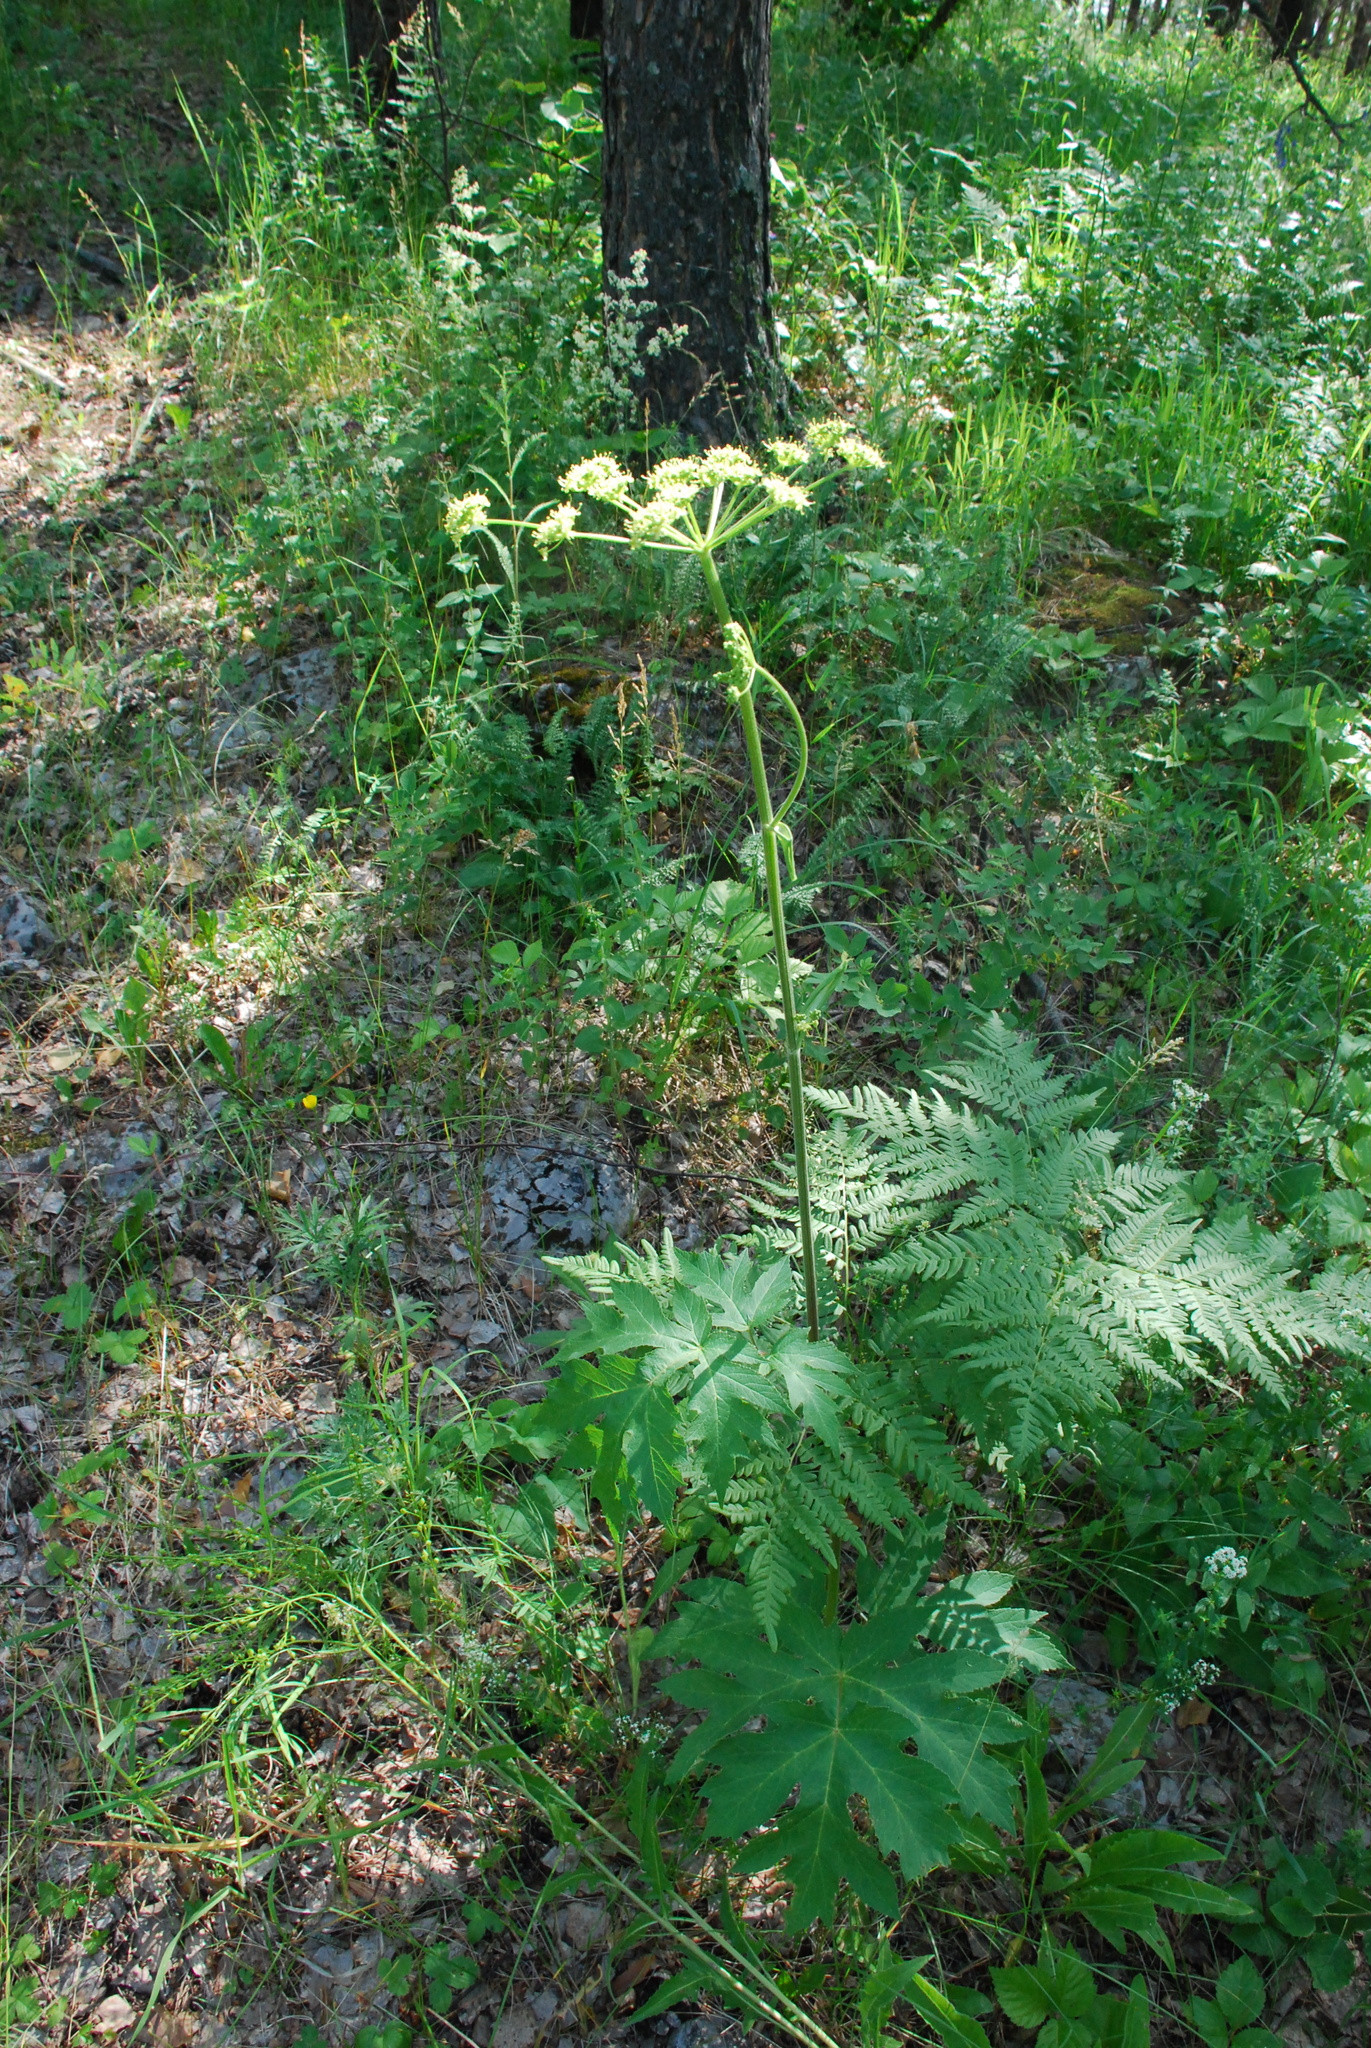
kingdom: Plantae
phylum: Tracheophyta
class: Magnoliopsida
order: Apiales
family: Apiaceae
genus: Heracleum
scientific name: Heracleum sphondylium
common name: Hogweed
